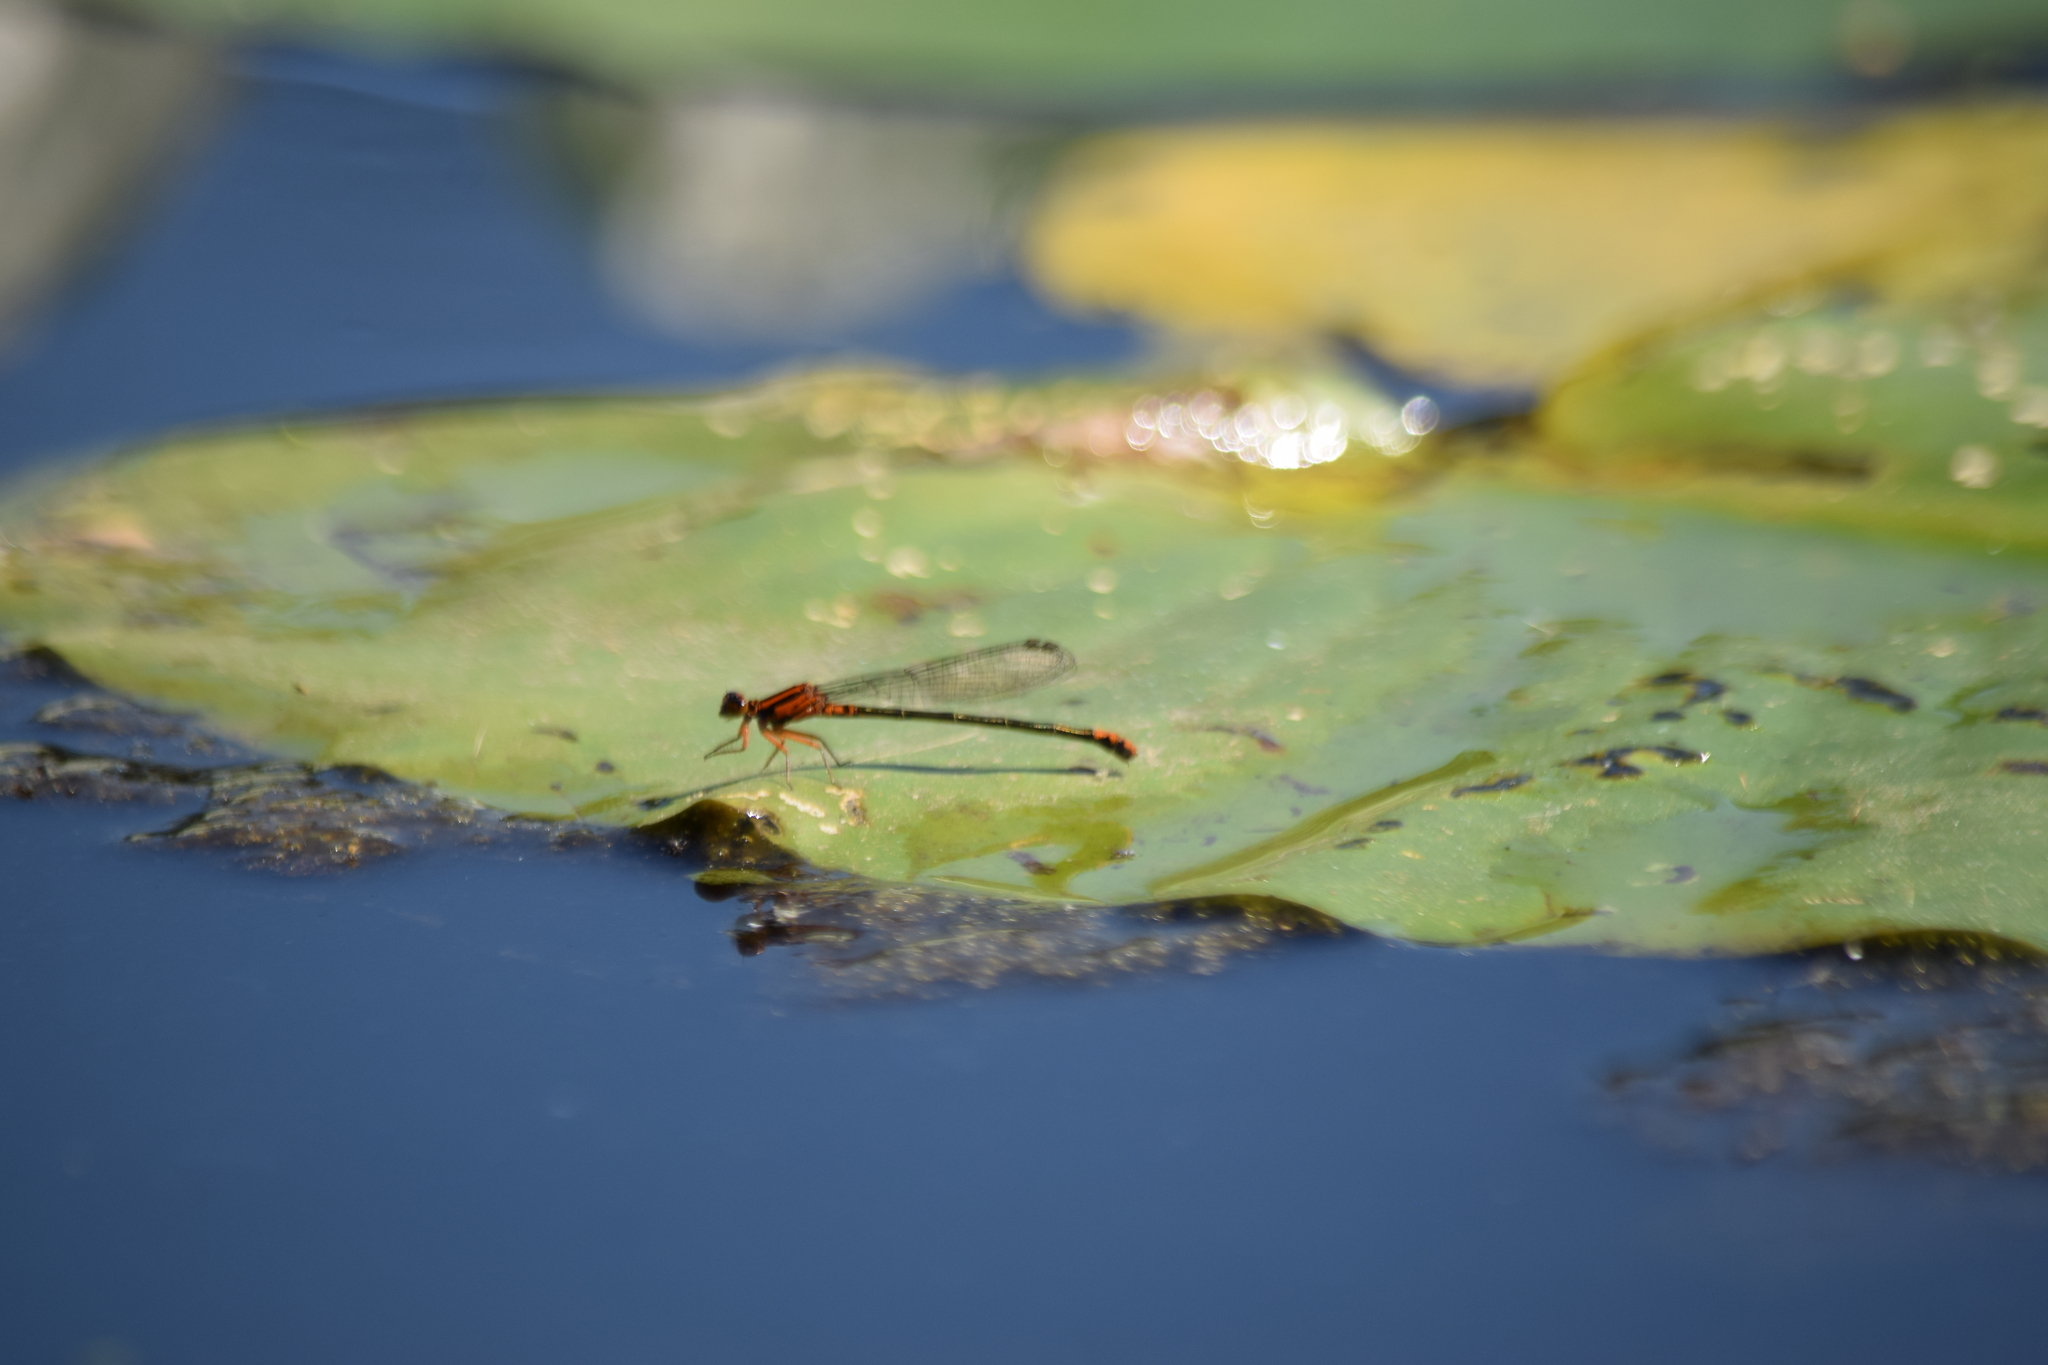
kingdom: Animalia
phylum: Arthropoda
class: Insecta
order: Odonata
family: Coenagrionidae
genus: Ischnura
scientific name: Ischnura kellicotti
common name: Lilypad forktail
